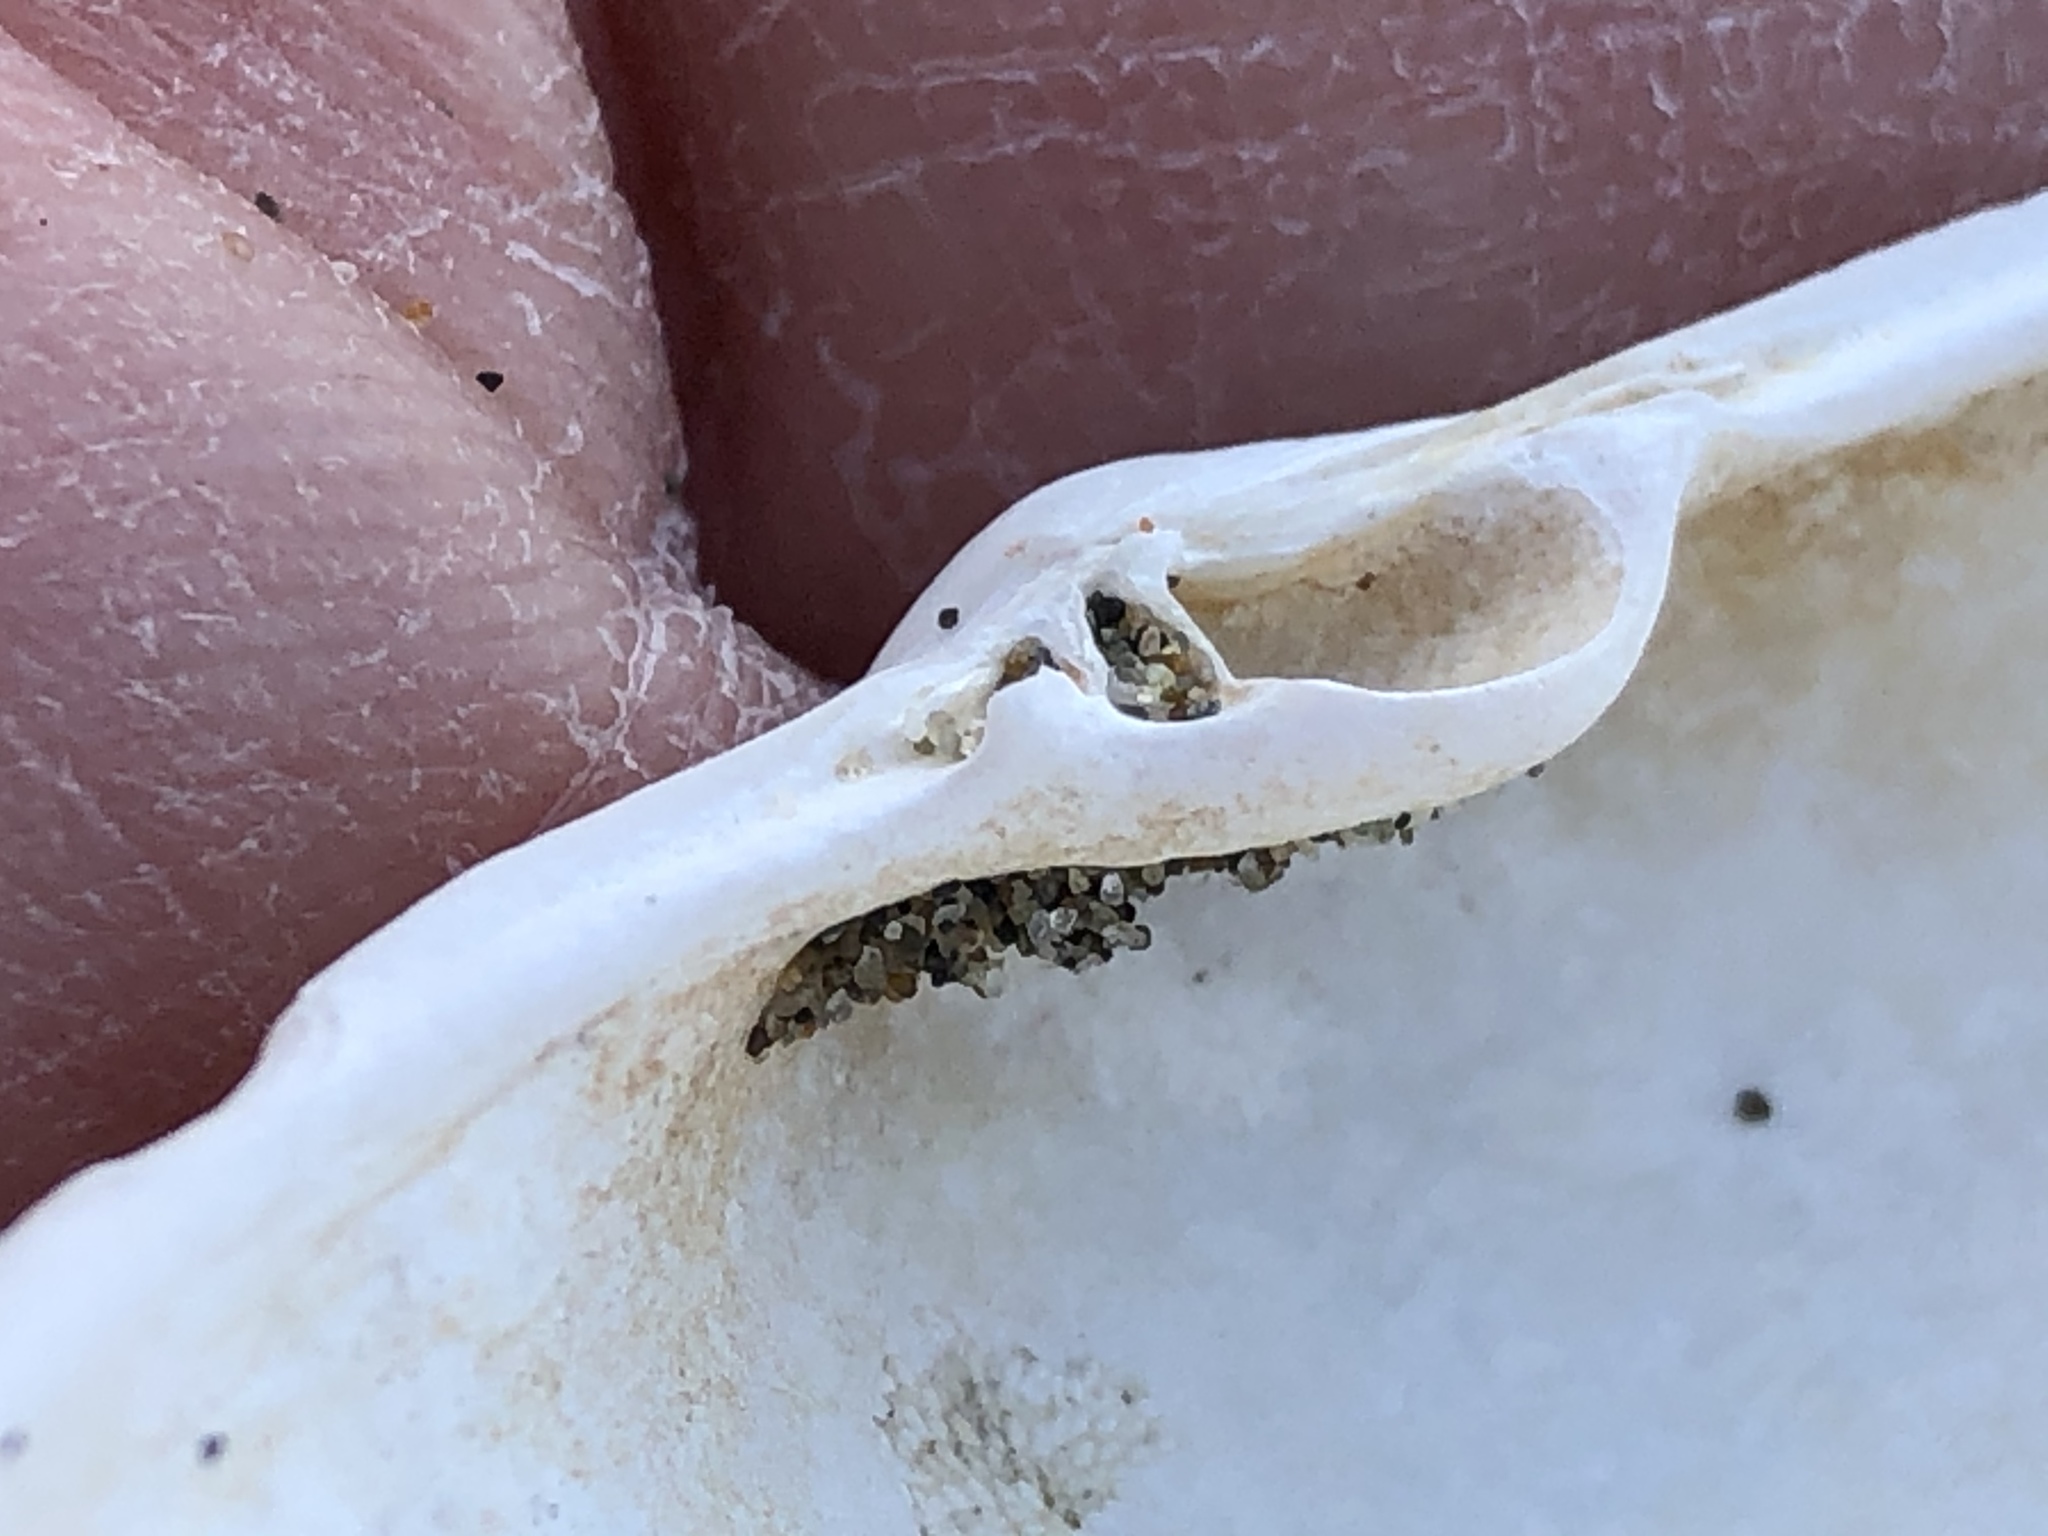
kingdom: Animalia
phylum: Mollusca
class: Bivalvia
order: Venerida
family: Mactridae
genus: Tresus
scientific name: Tresus nuttallii
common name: Pacific gaper clam
